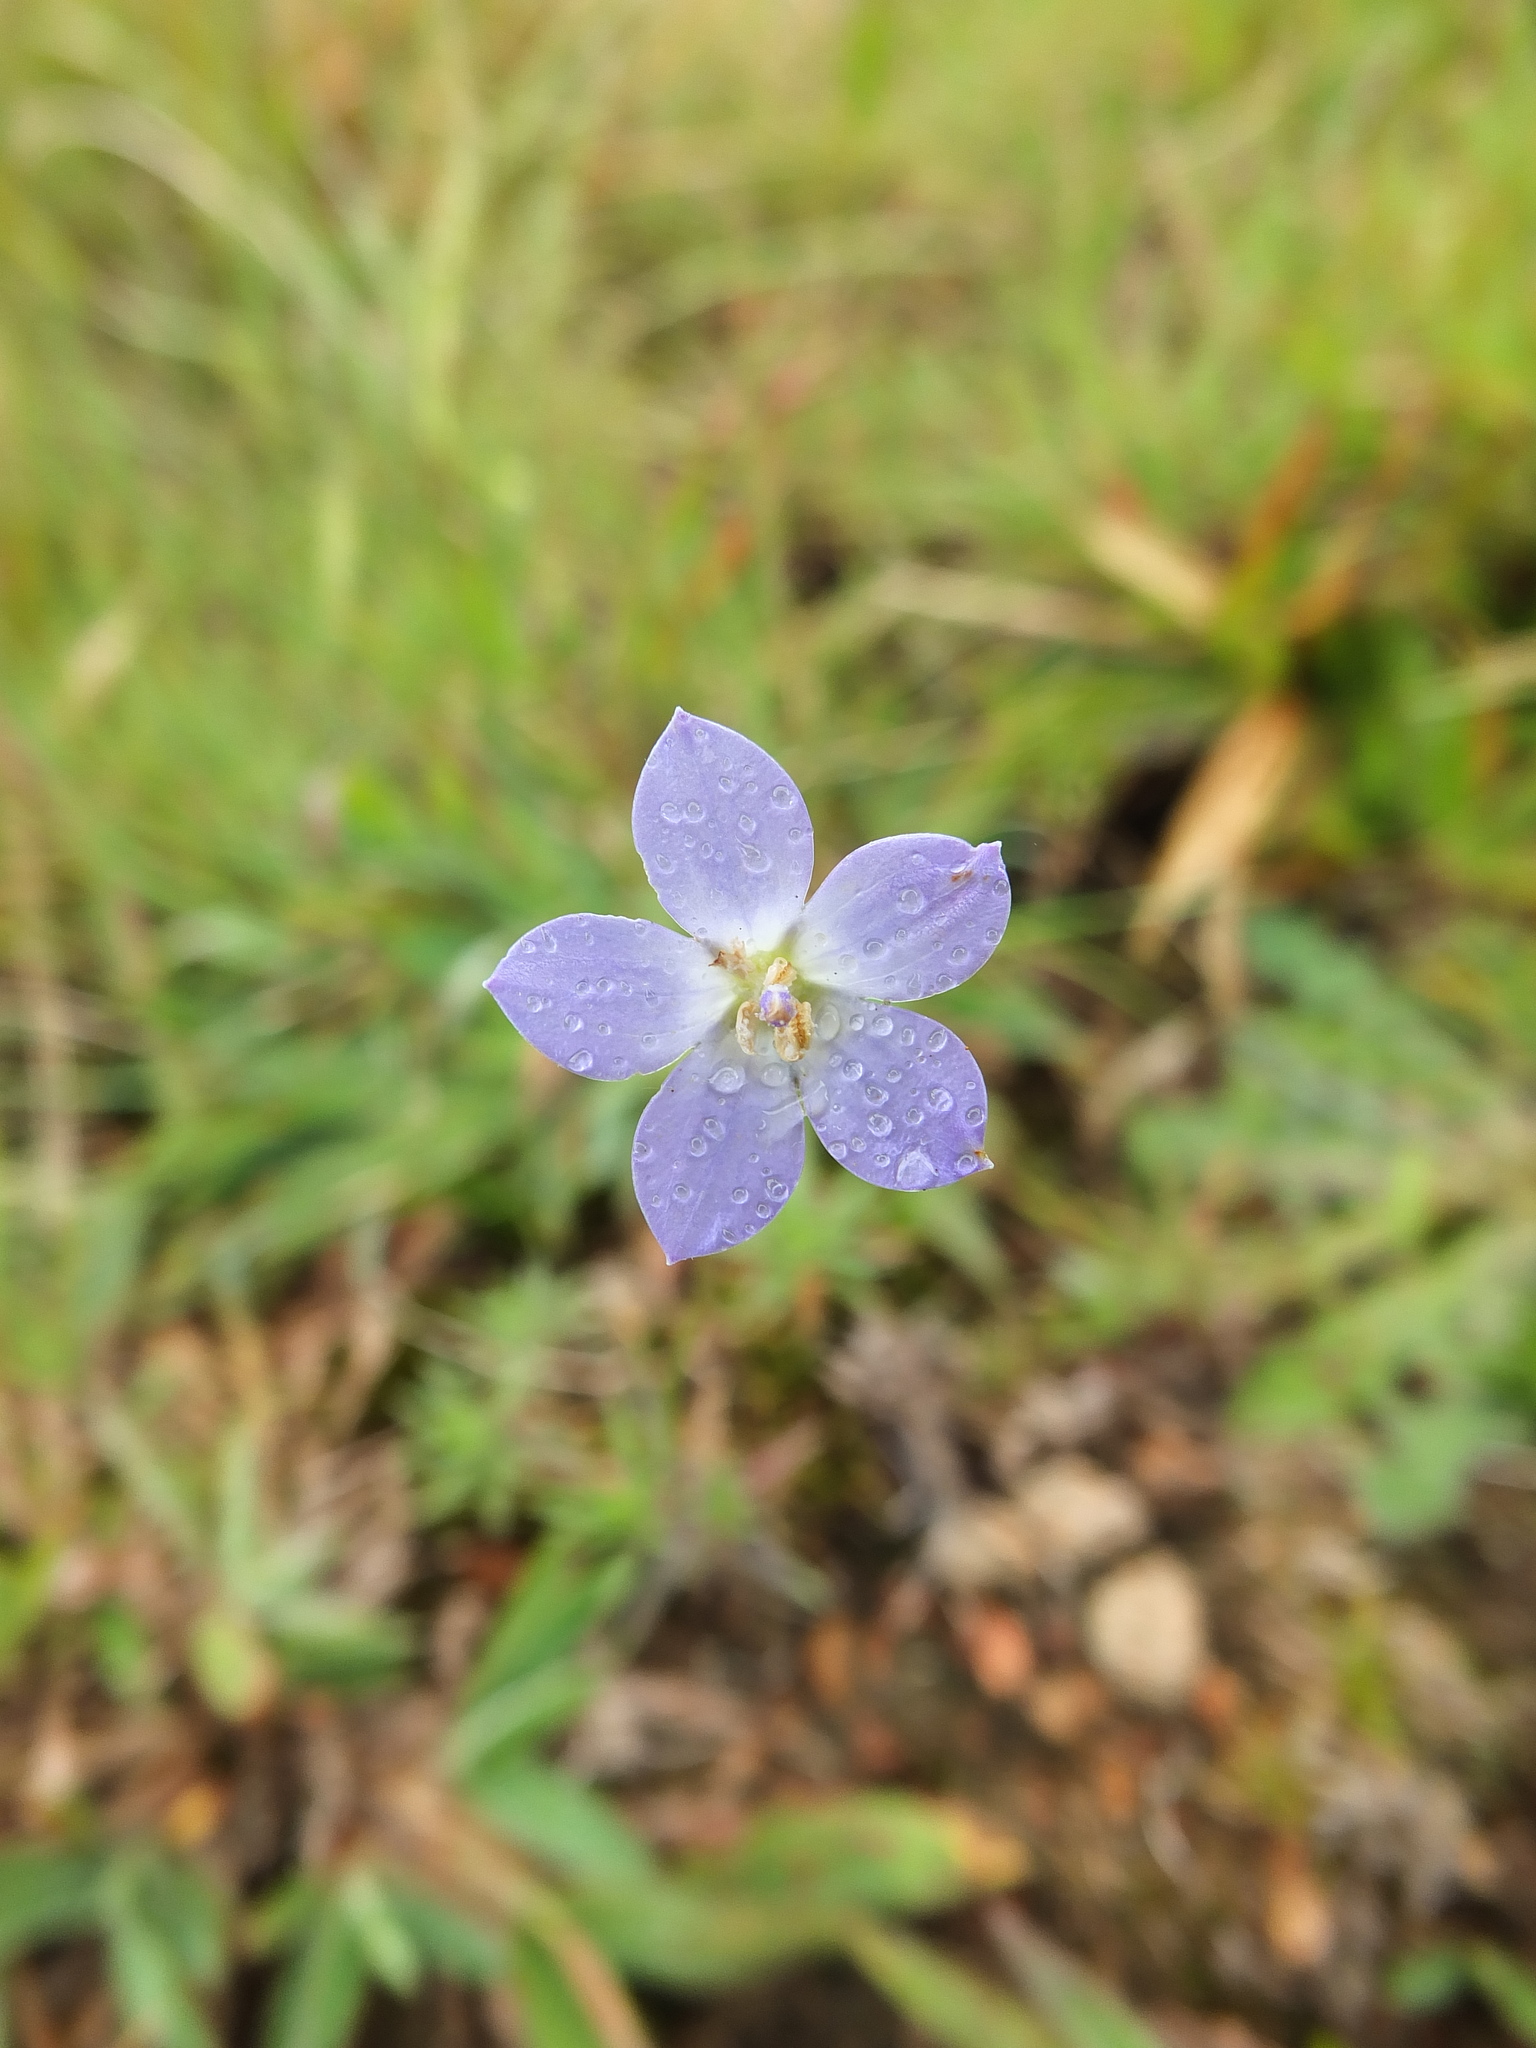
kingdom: Plantae
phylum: Tracheophyta
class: Magnoliopsida
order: Asterales
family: Campanulaceae
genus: Wahlenbergia
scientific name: Wahlenbergia marginata
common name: Southern rockbell
